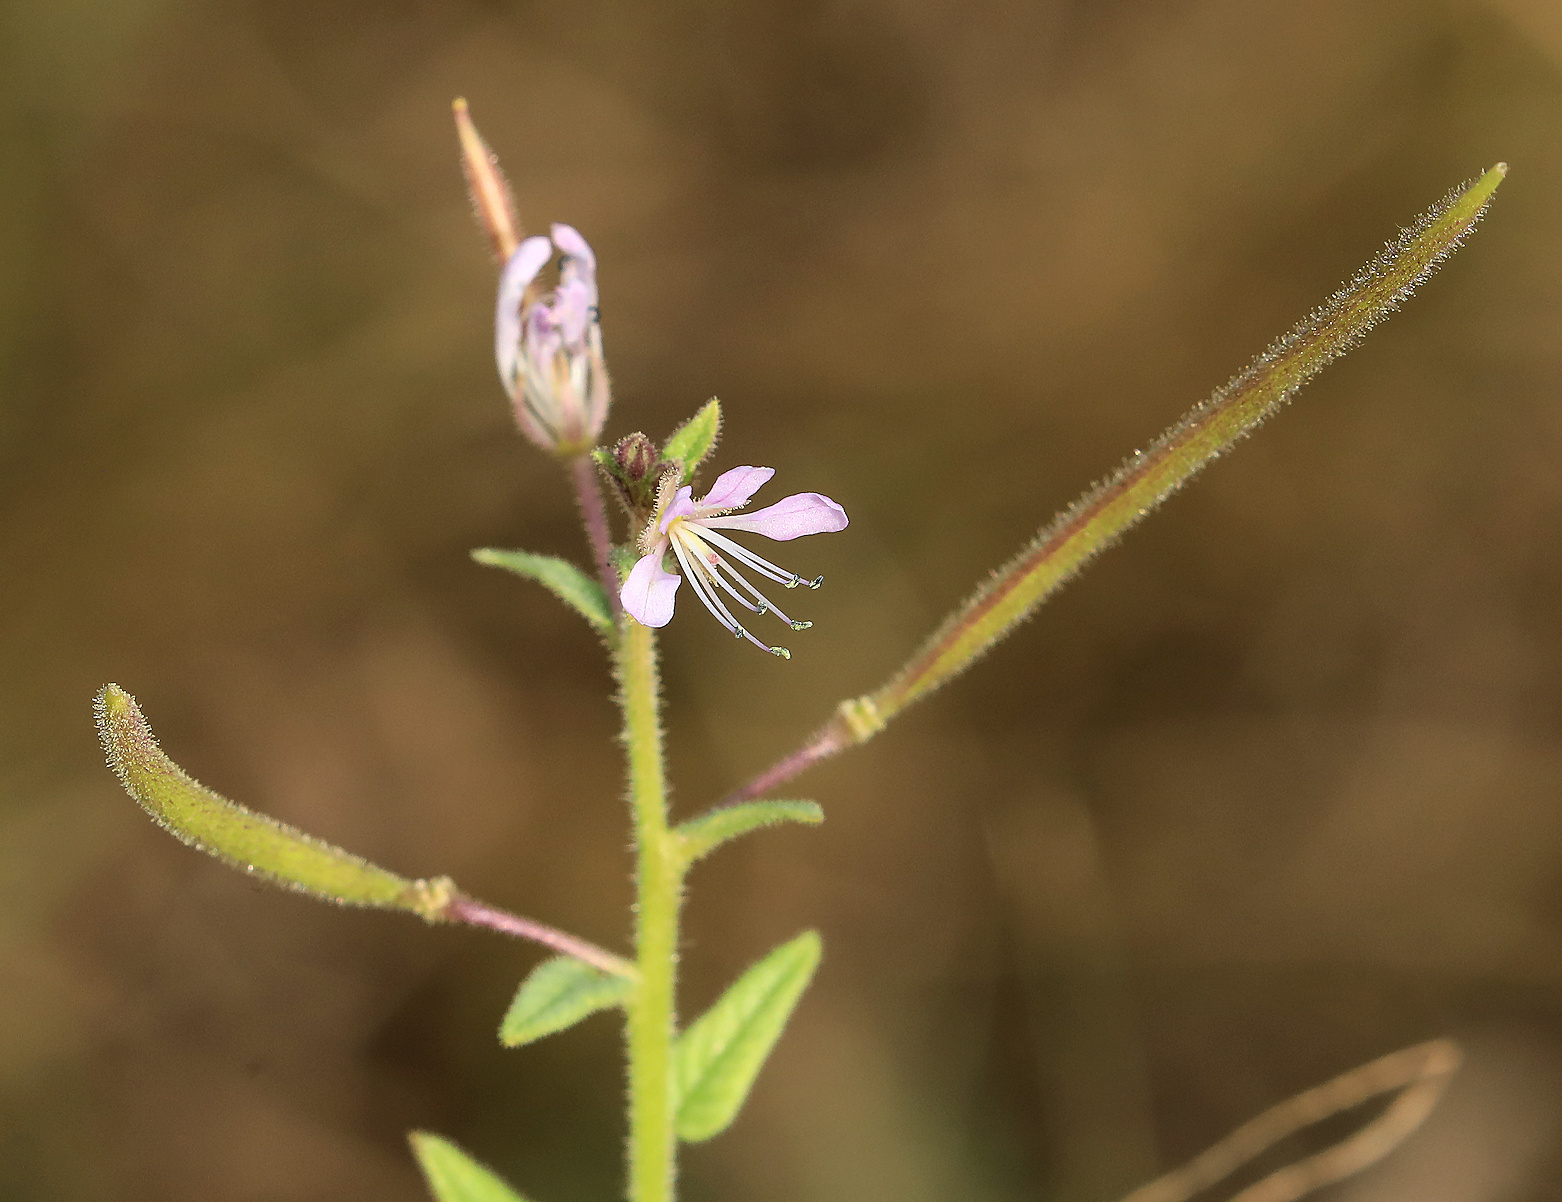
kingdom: Plantae
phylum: Tracheophyta
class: Magnoliopsida
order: Brassicales
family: Cleomaceae
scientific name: Cleomaceae
